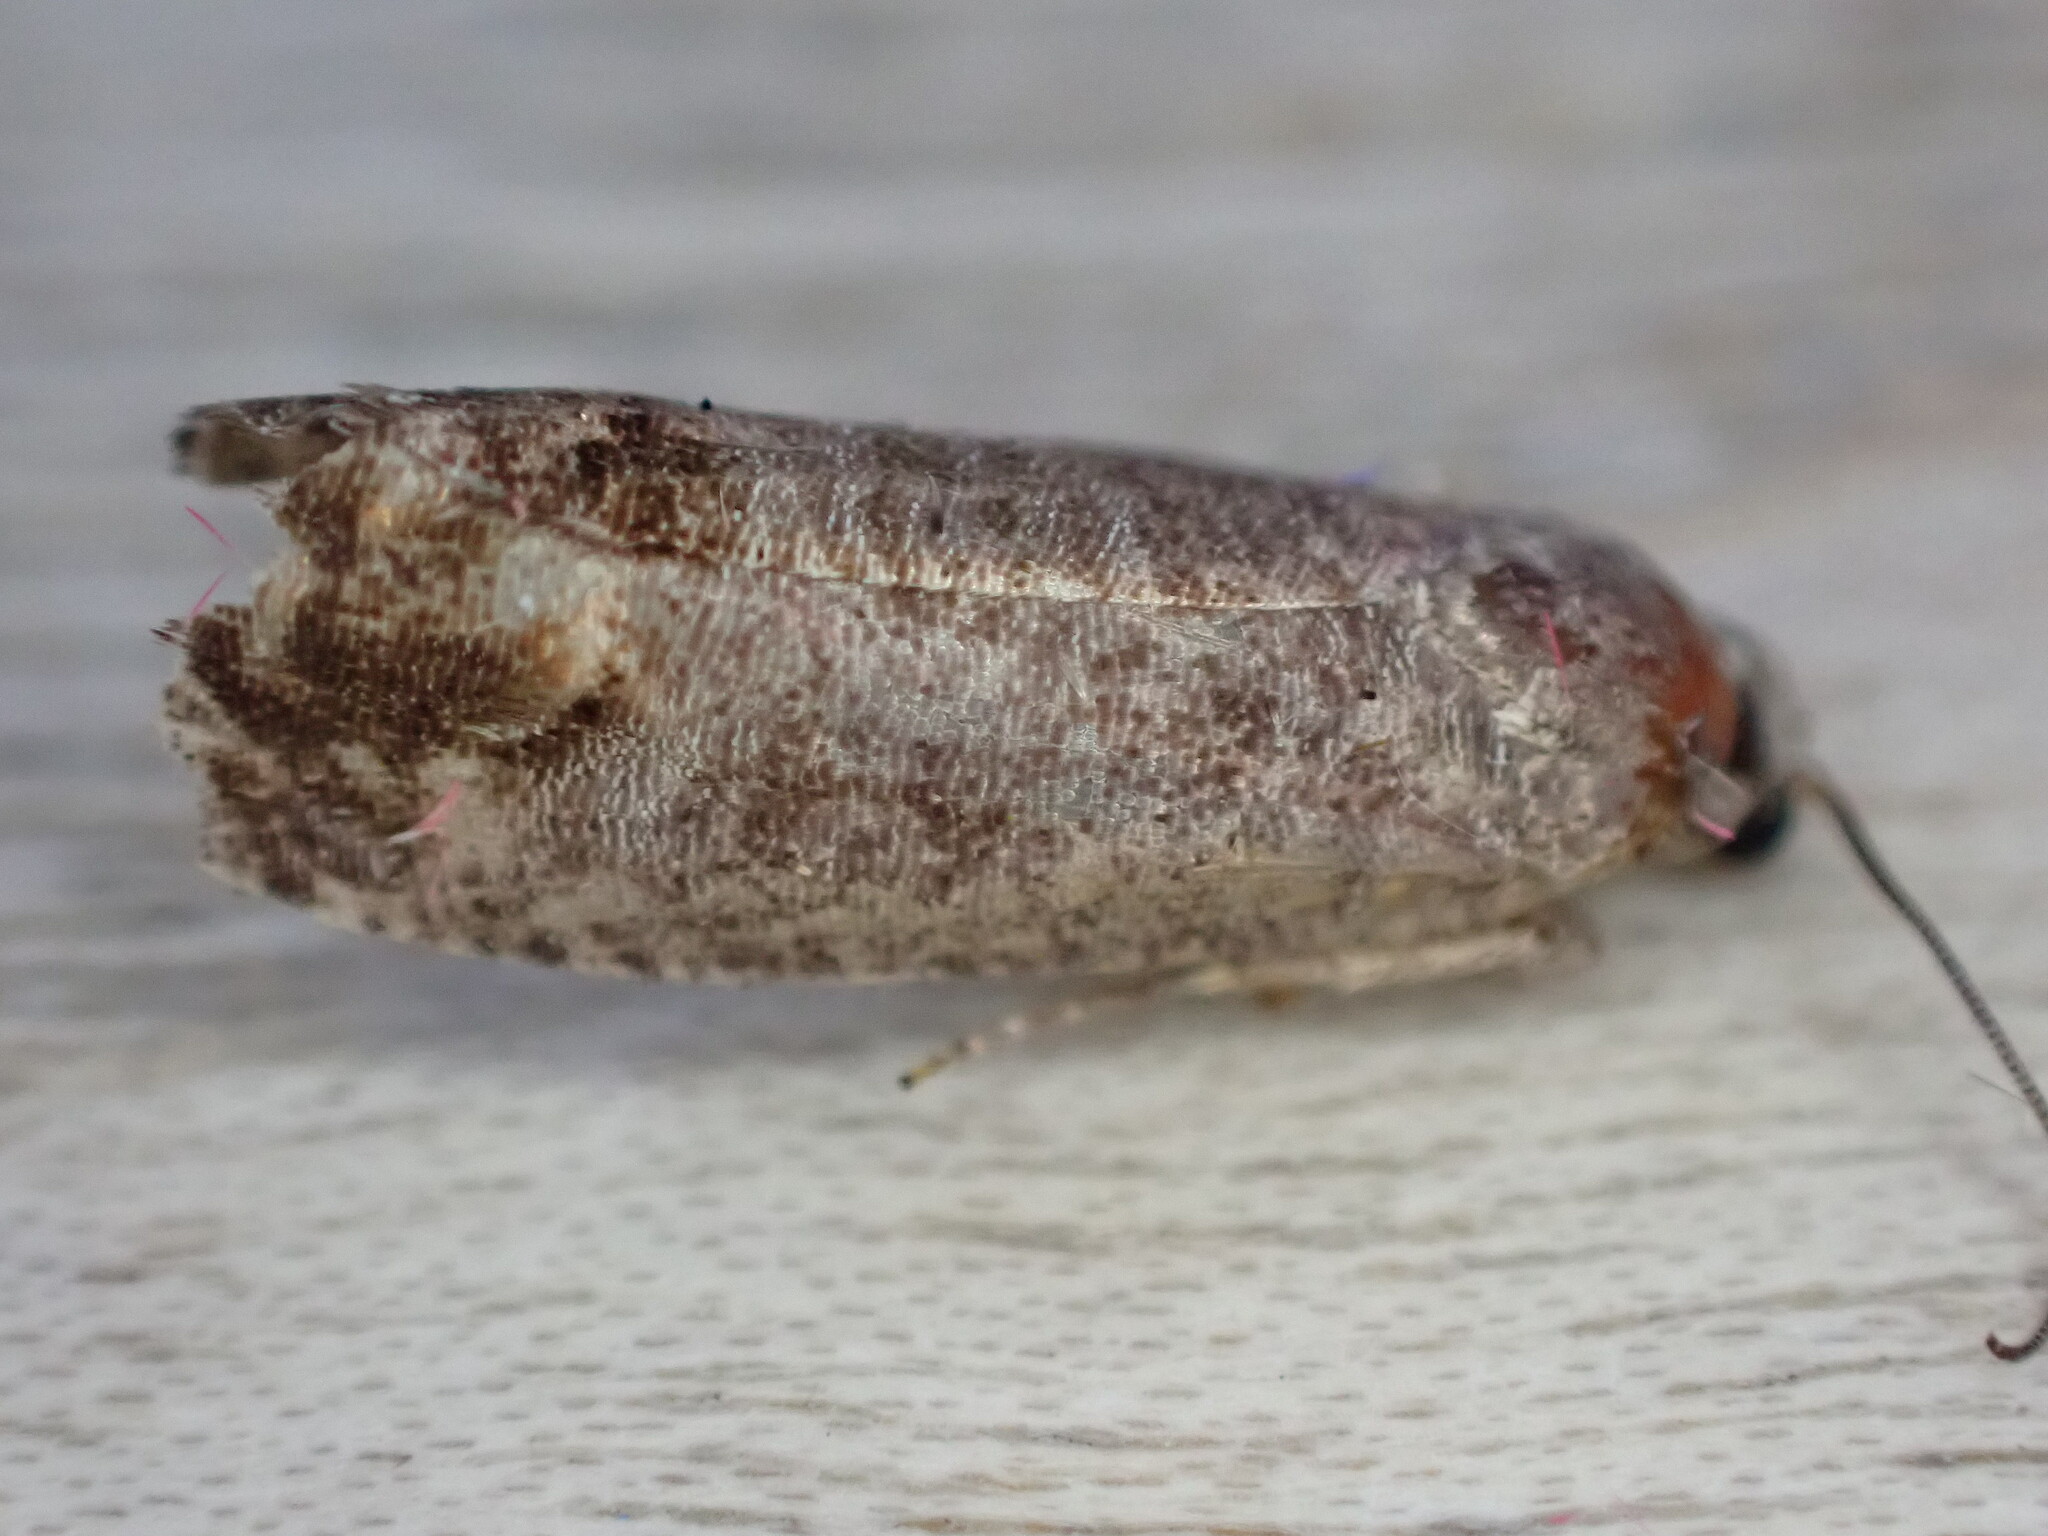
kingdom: Animalia
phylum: Arthropoda
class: Insecta
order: Lepidoptera
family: Tortricidae
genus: Cydia
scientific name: Cydia pomonella
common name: Codling moth
